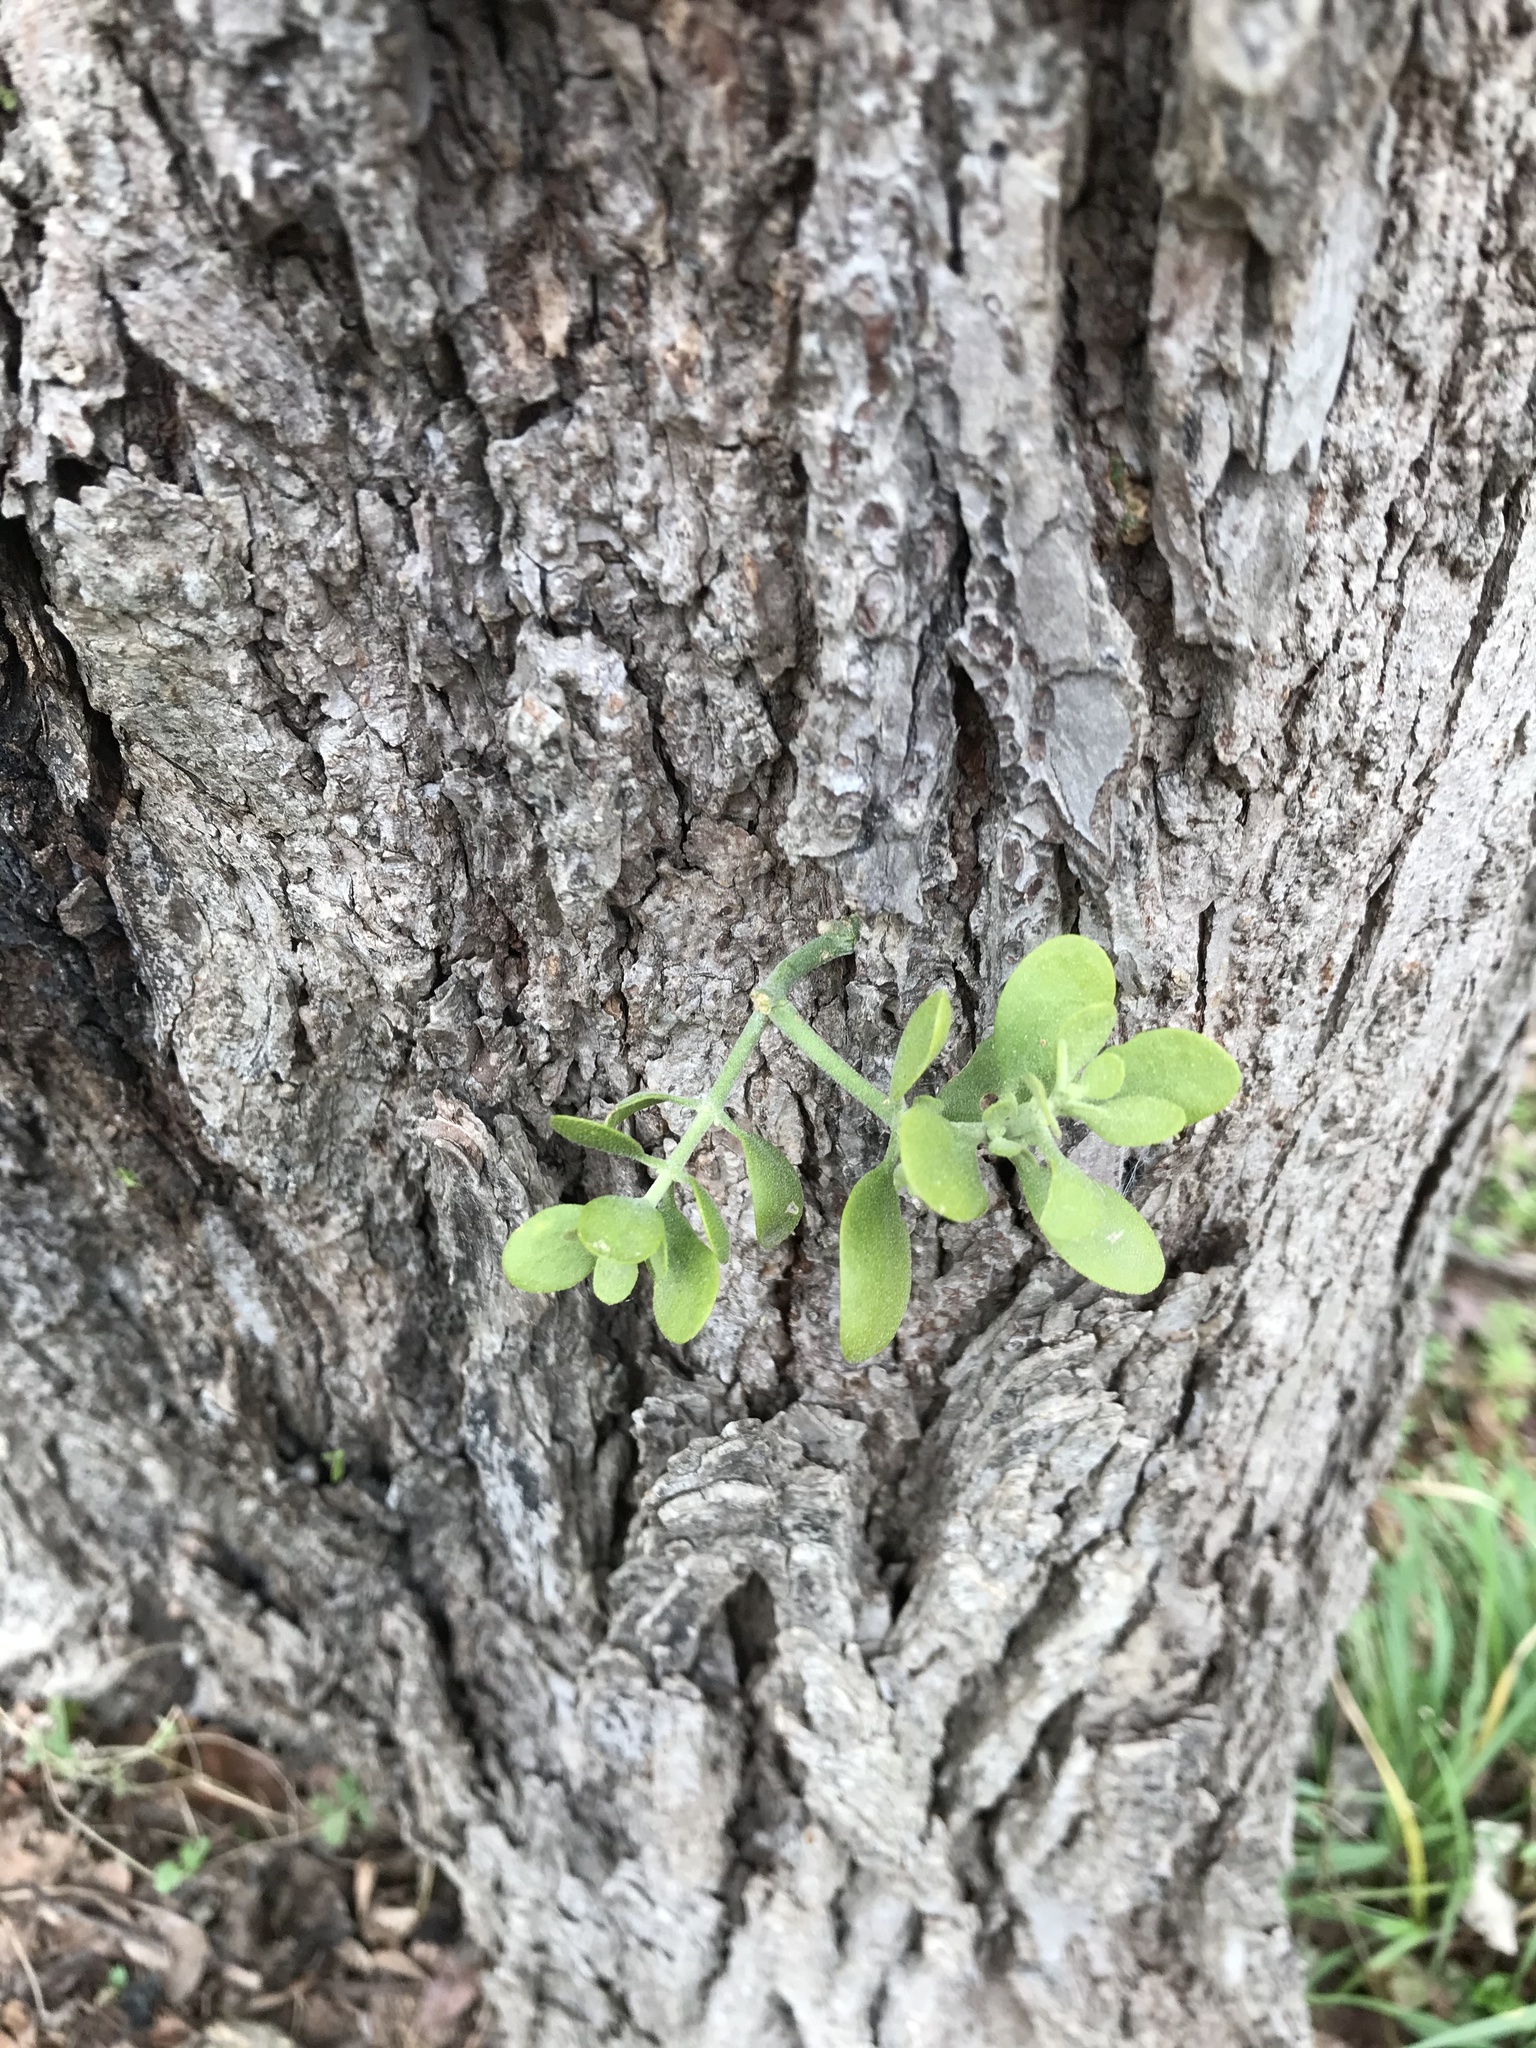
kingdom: Plantae
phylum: Tracheophyta
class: Magnoliopsida
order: Santalales
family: Viscaceae
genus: Phoradendron
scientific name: Phoradendron leucarpum
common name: Pacific mistletoe
